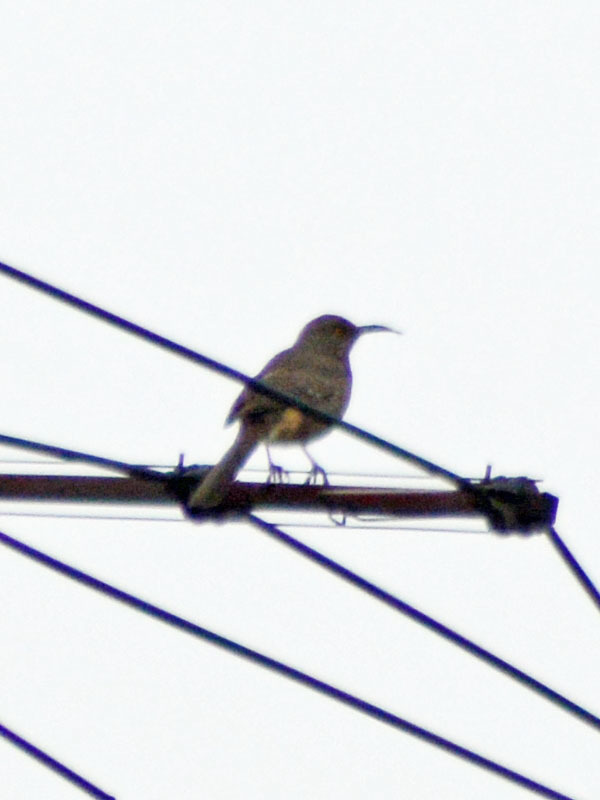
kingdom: Animalia
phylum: Chordata
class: Aves
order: Passeriformes
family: Mimidae
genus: Toxostoma
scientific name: Toxostoma curvirostre
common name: Curve-billed thrasher
